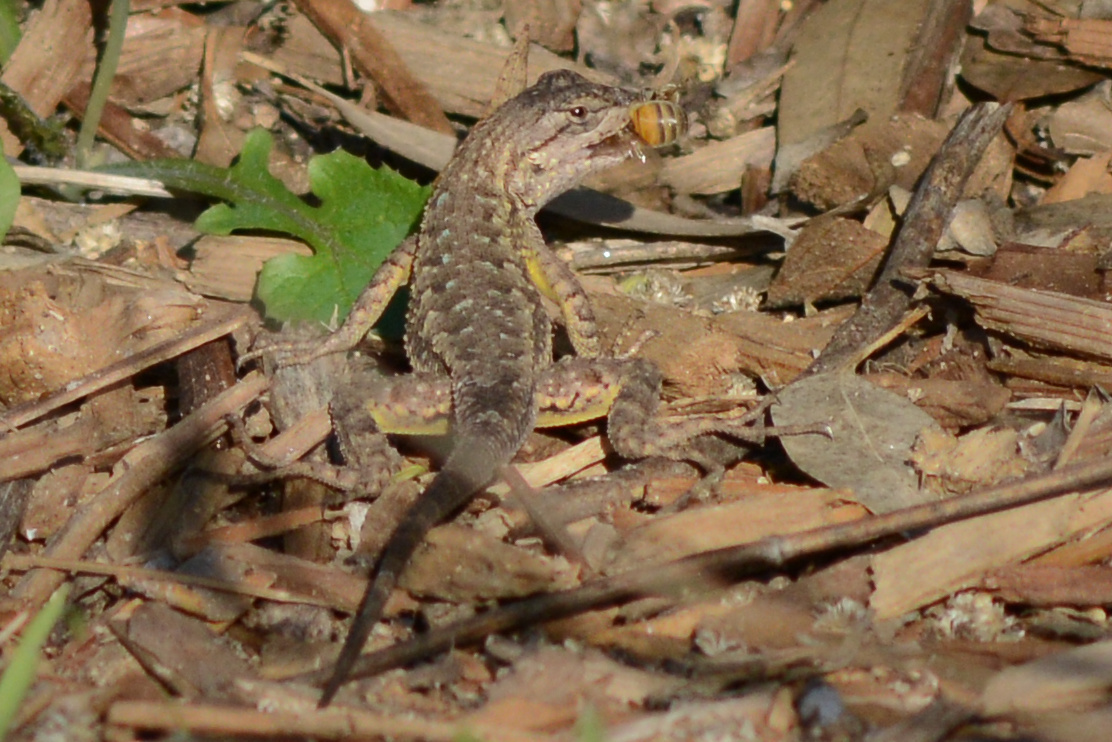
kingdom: Animalia
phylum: Chordata
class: Squamata
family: Phrynosomatidae
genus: Sceloporus
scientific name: Sceloporus occidentalis
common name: Western fence lizard
